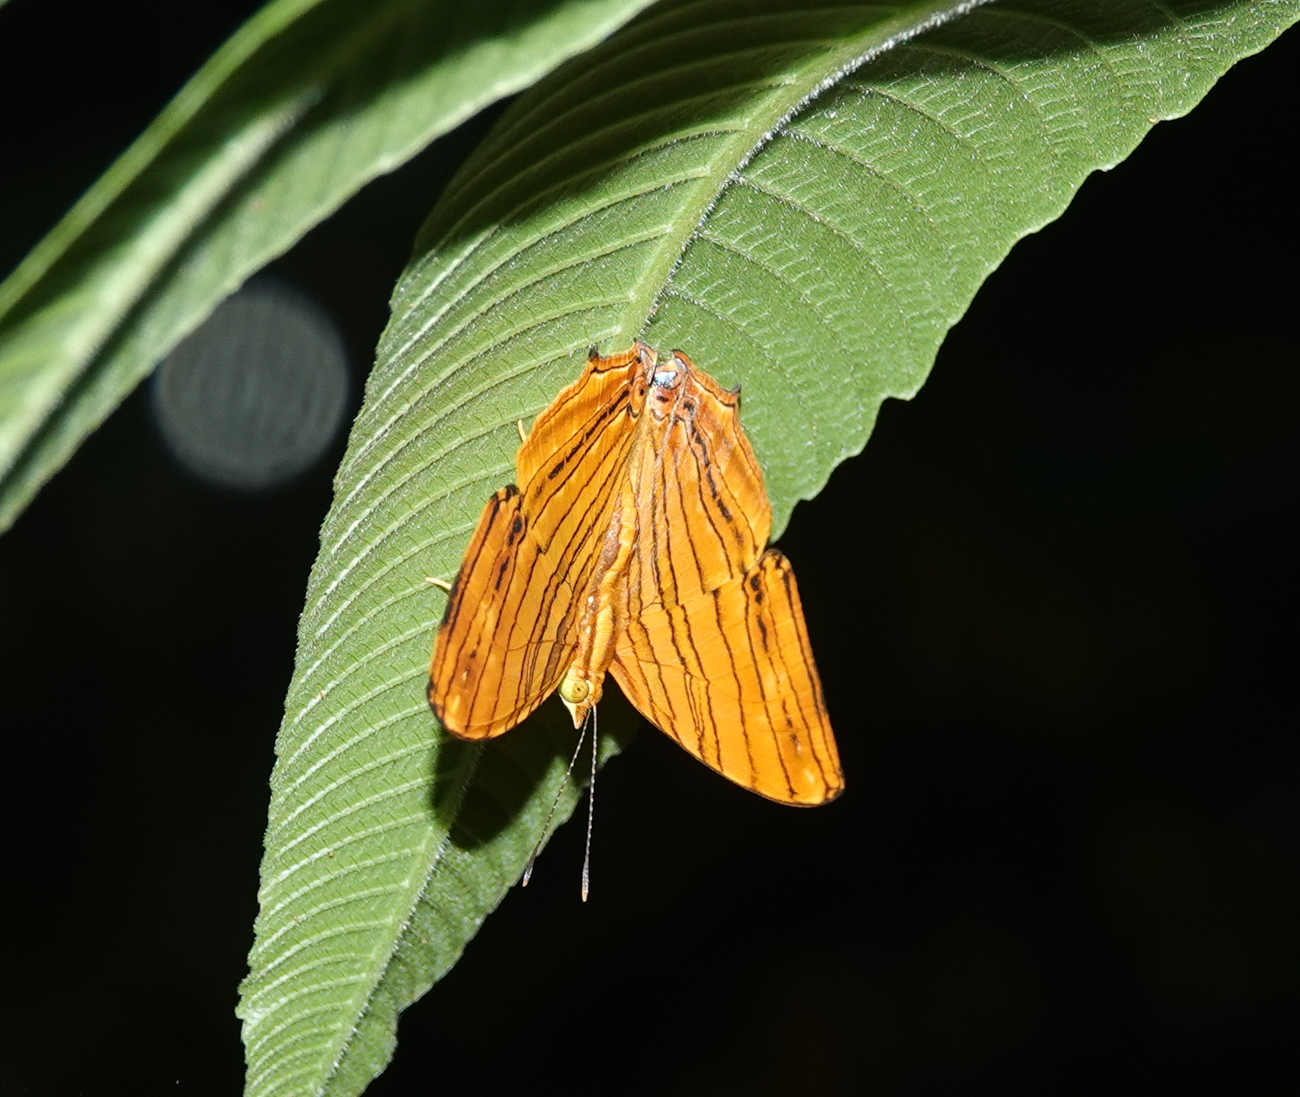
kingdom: Animalia
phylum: Arthropoda
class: Insecta
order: Lepidoptera
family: Nymphalidae
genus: Chersonesia
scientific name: Chersonesia risa
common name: Common maplet
